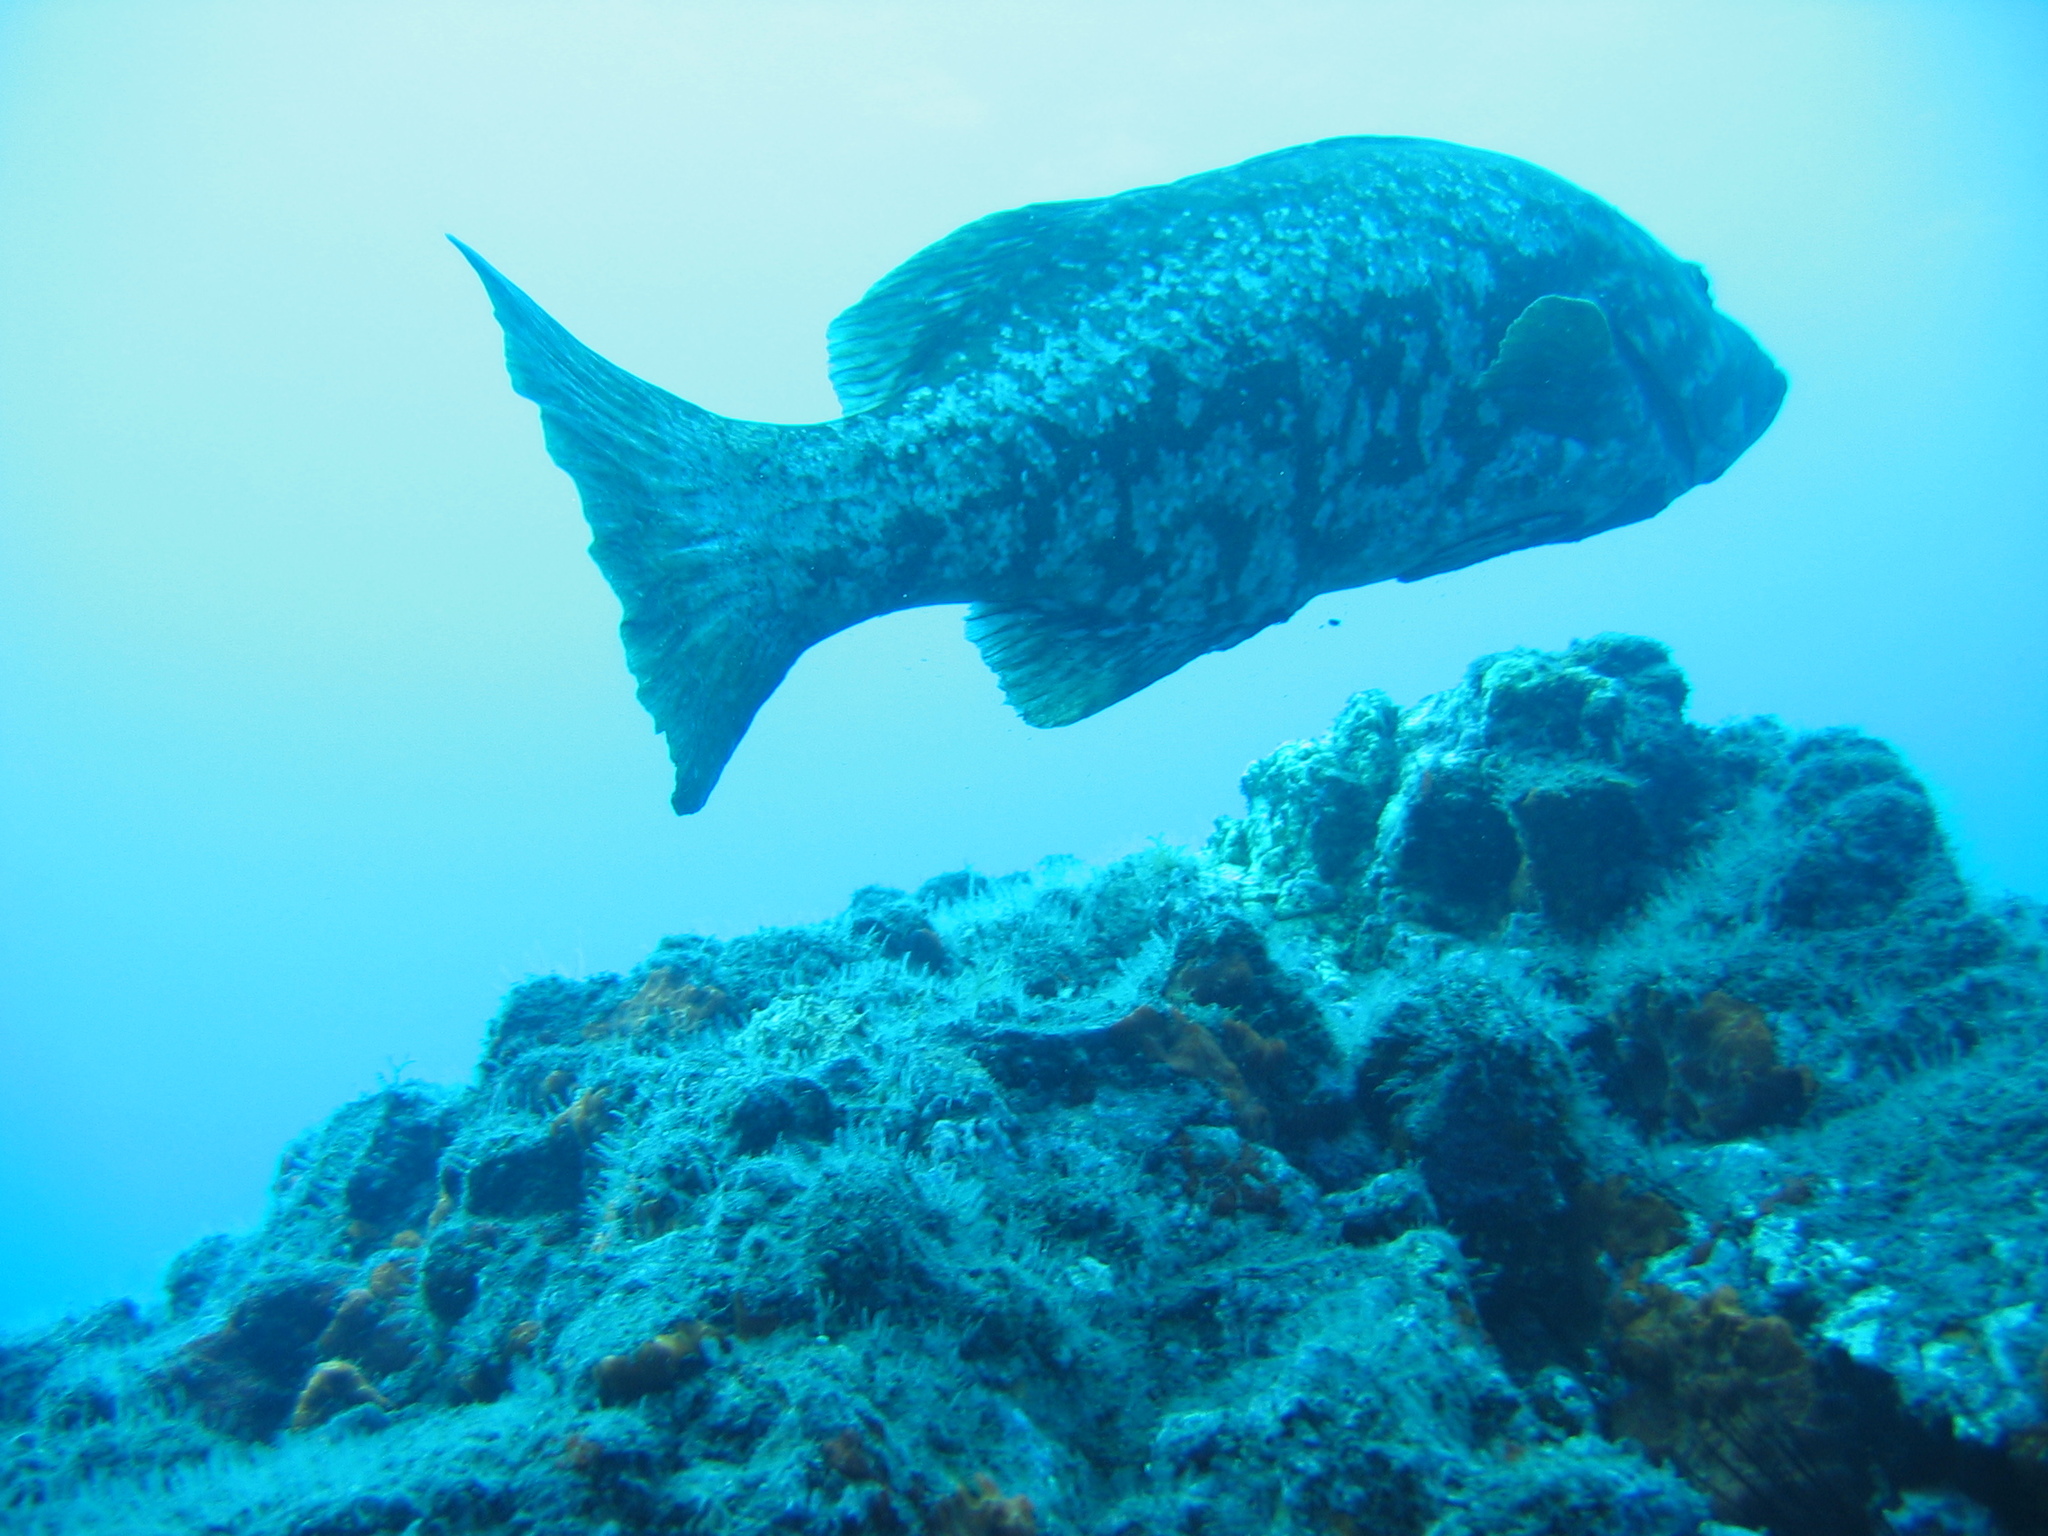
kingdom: Animalia
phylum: Chordata
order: Perciformes
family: Serranidae
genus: Mycteroperca
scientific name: Mycteroperca fusca
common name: Island grouper
